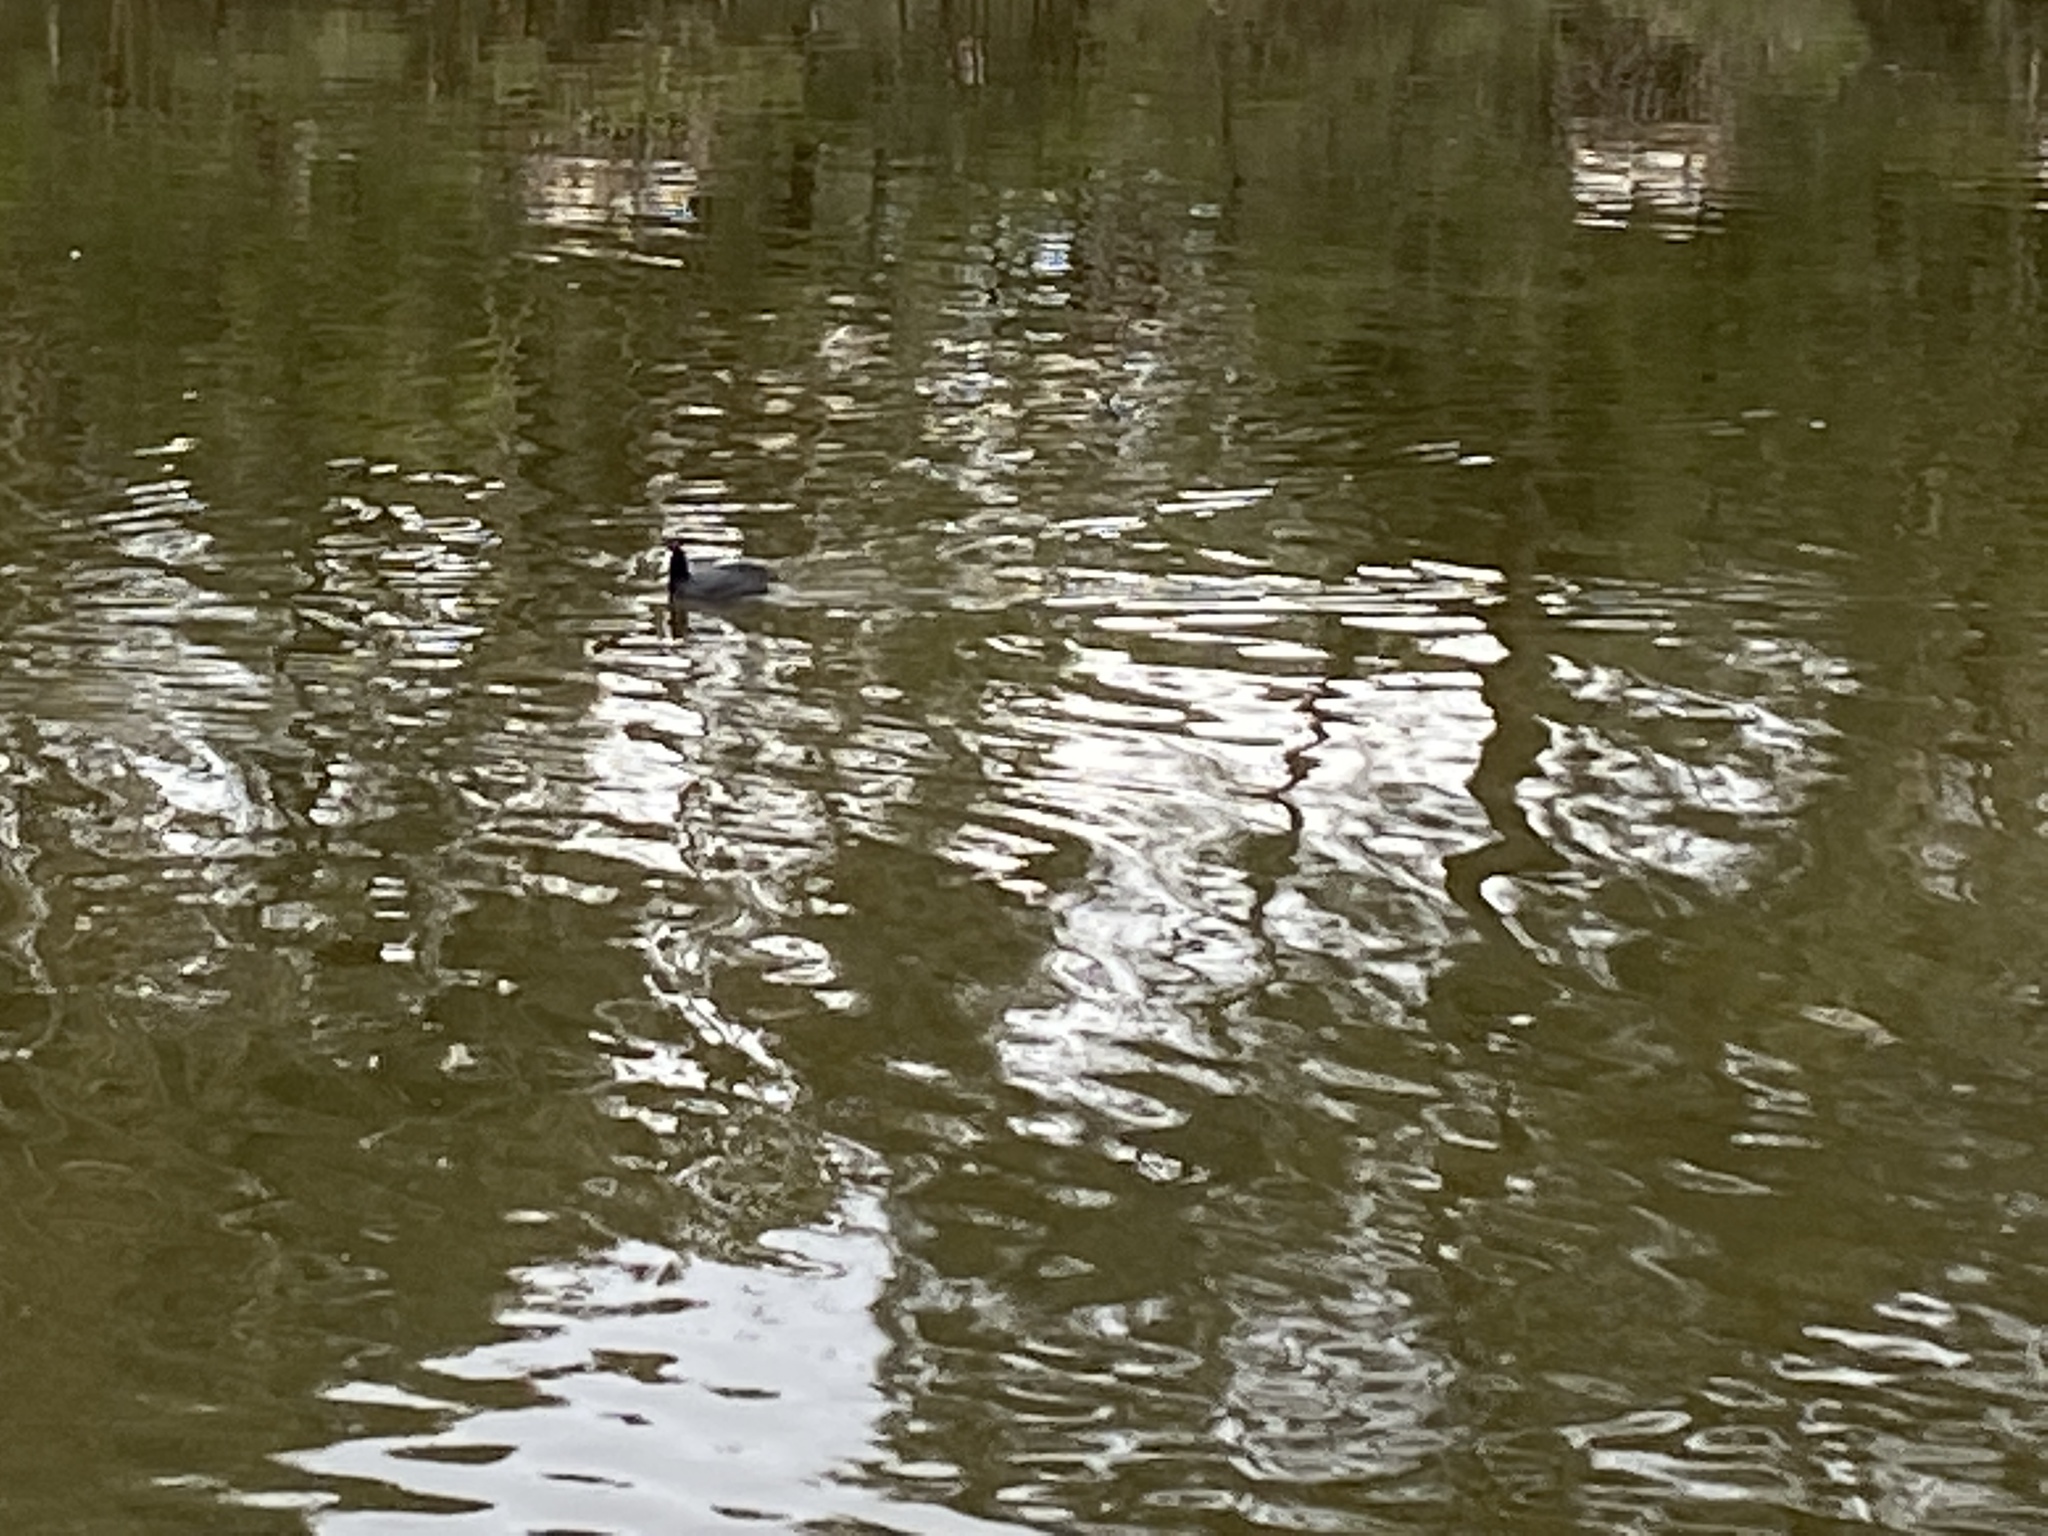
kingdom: Animalia
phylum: Chordata
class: Aves
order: Gruiformes
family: Rallidae
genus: Fulica
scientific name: Fulica atra
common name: Eurasian coot
